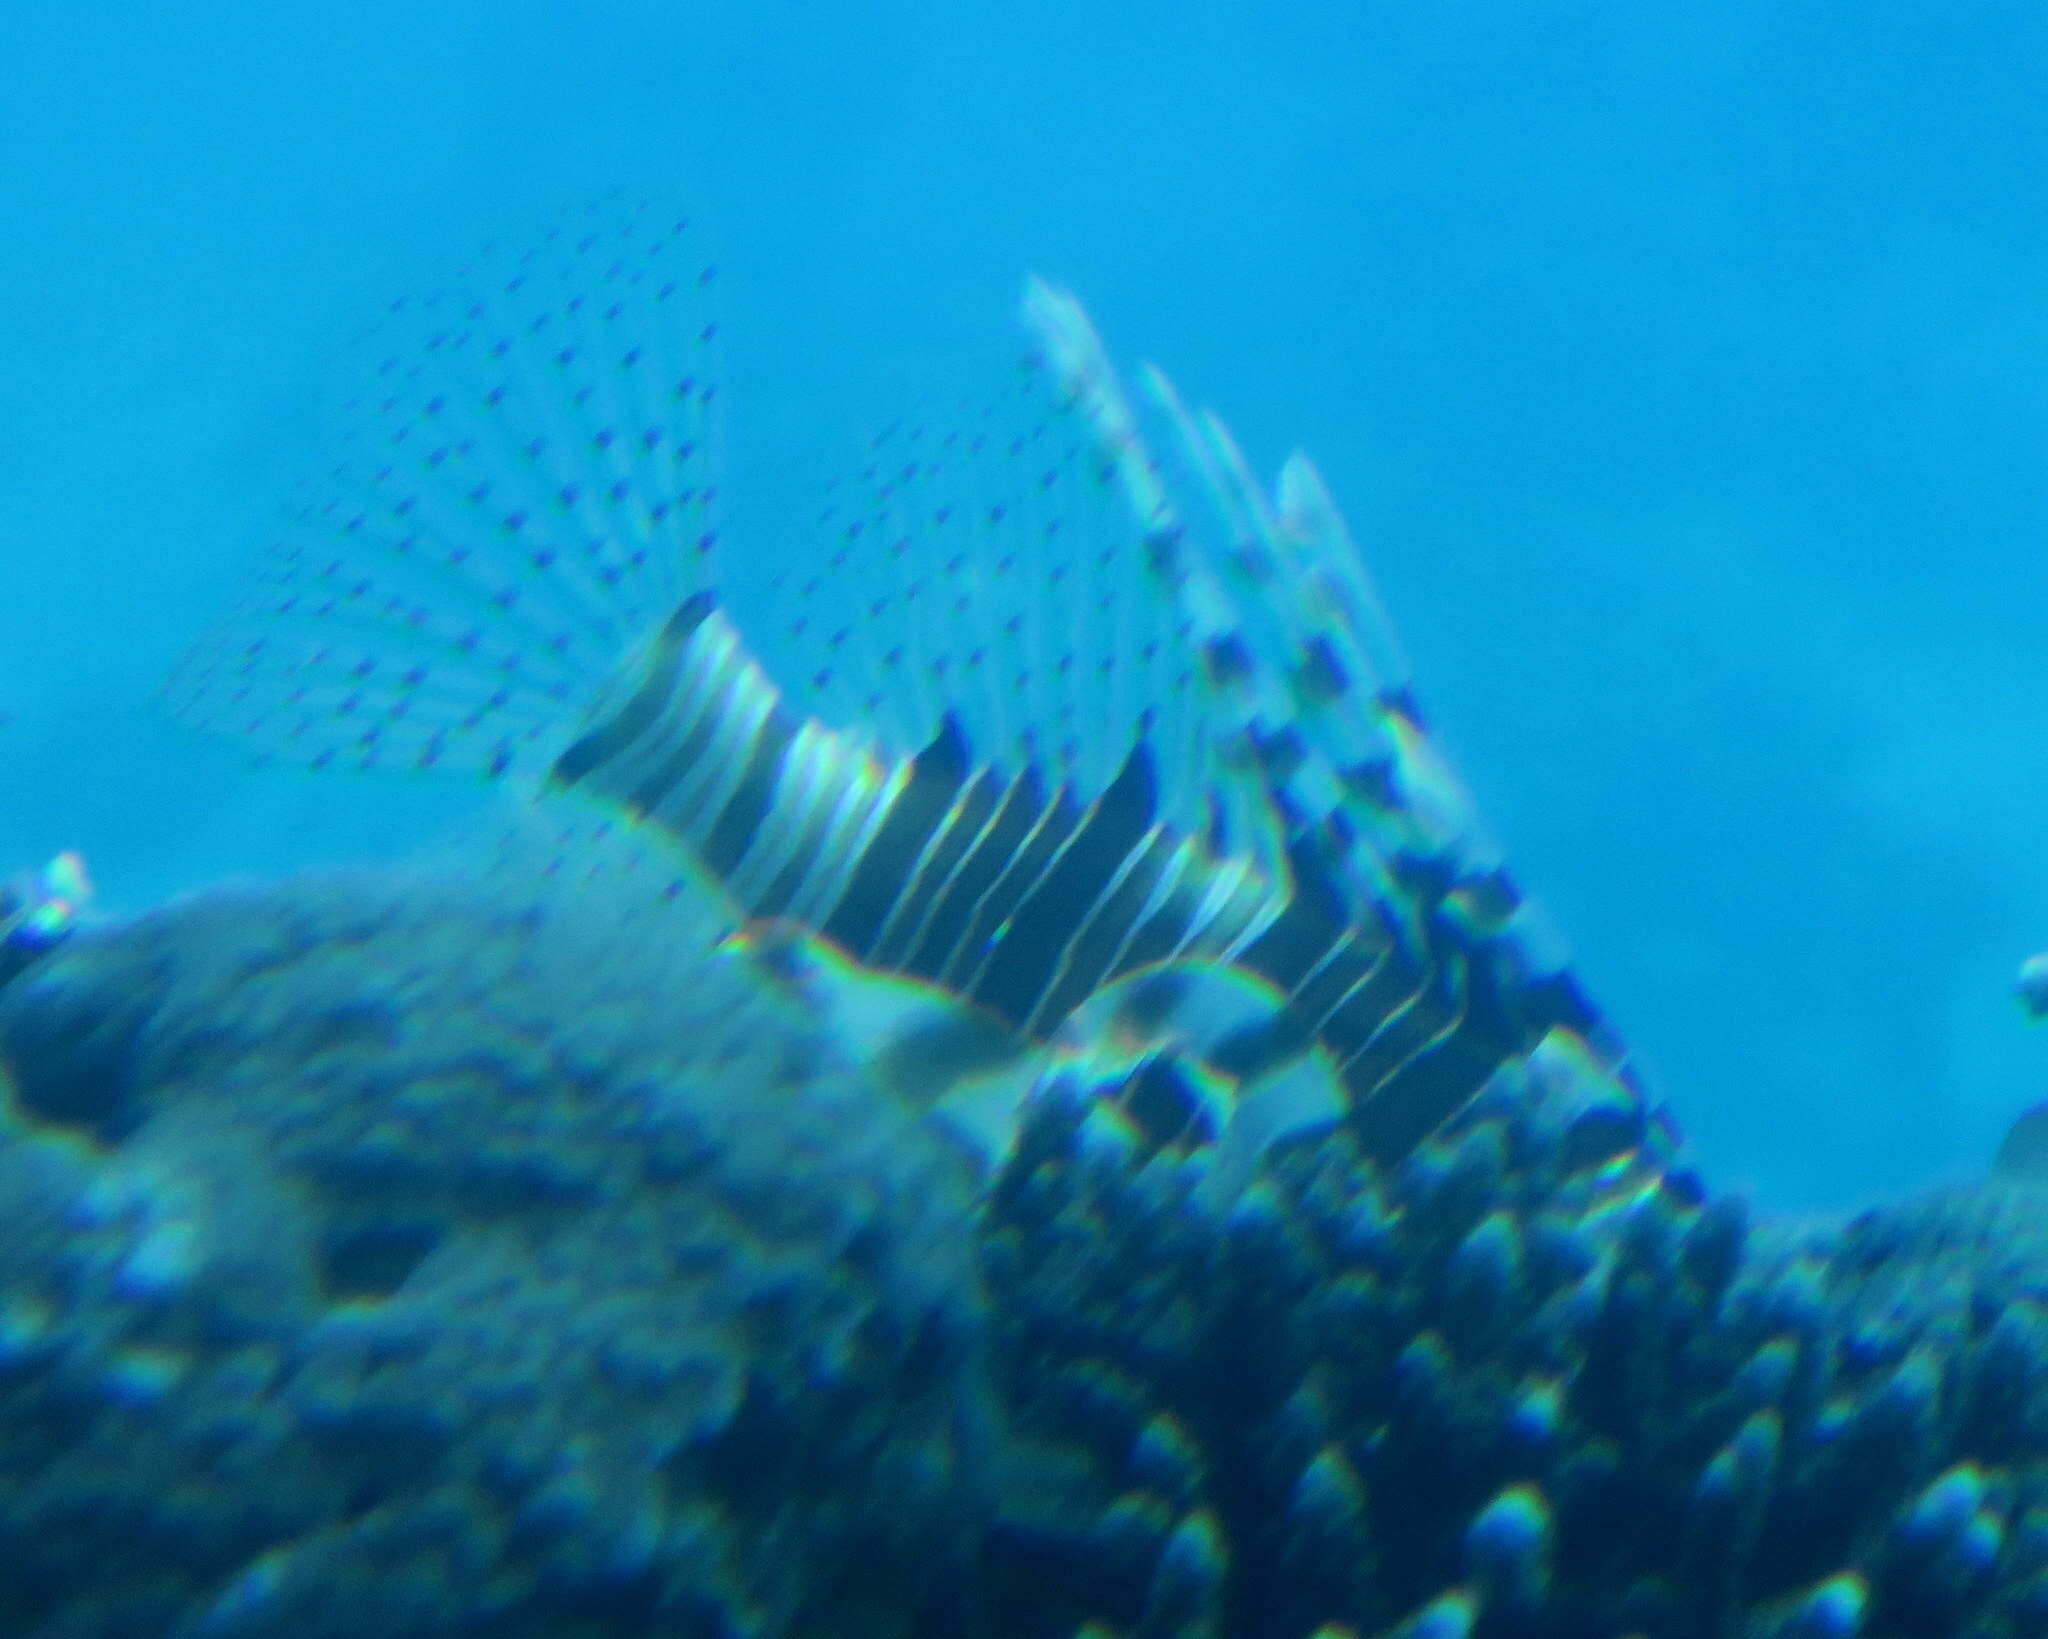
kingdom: Animalia
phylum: Chordata
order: Scorpaeniformes
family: Scorpaenidae
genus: Pterois
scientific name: Pterois miles
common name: Devil firefish
